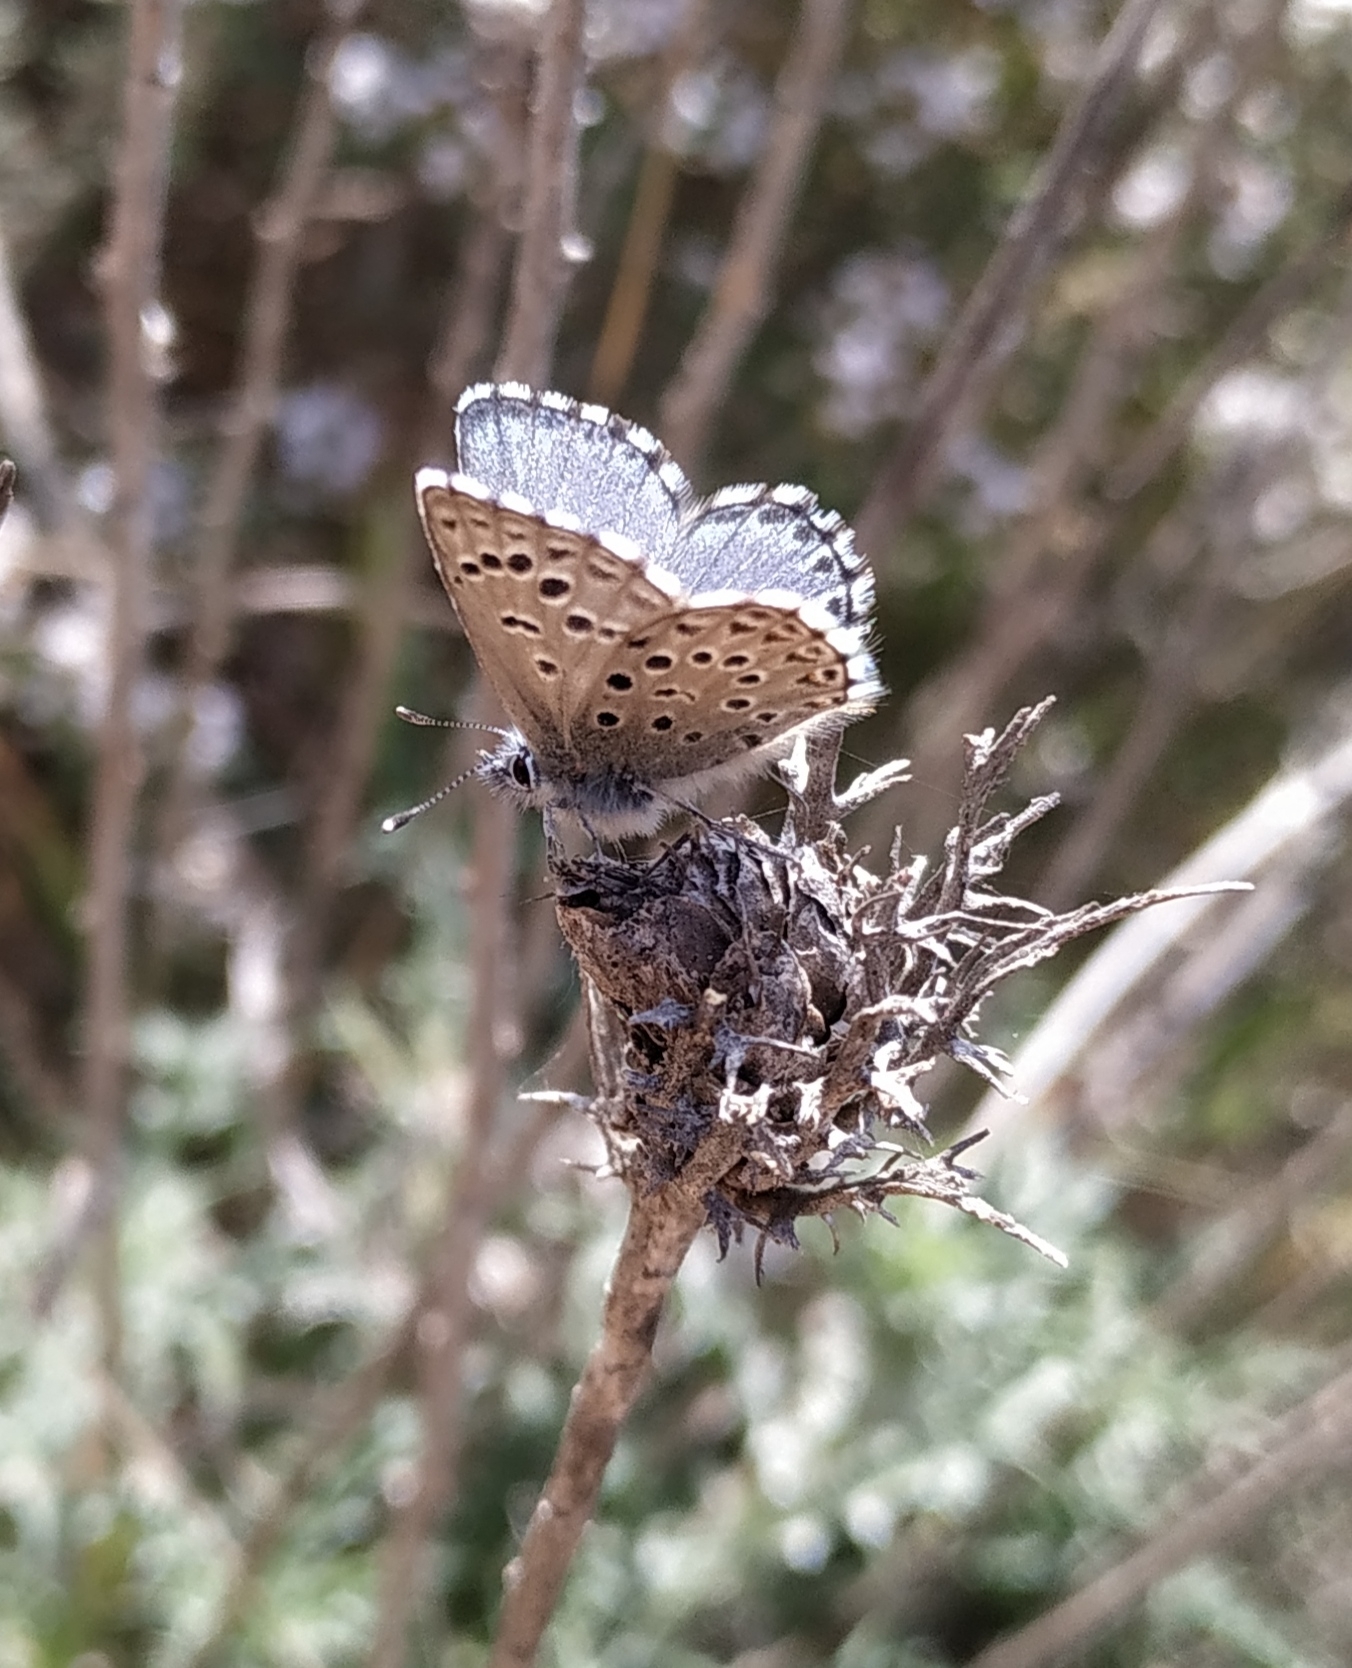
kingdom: Animalia
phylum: Arthropoda
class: Insecta
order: Lepidoptera
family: Lycaenidae
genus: Pseudophilotes
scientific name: Pseudophilotes baton
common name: Baton blue
